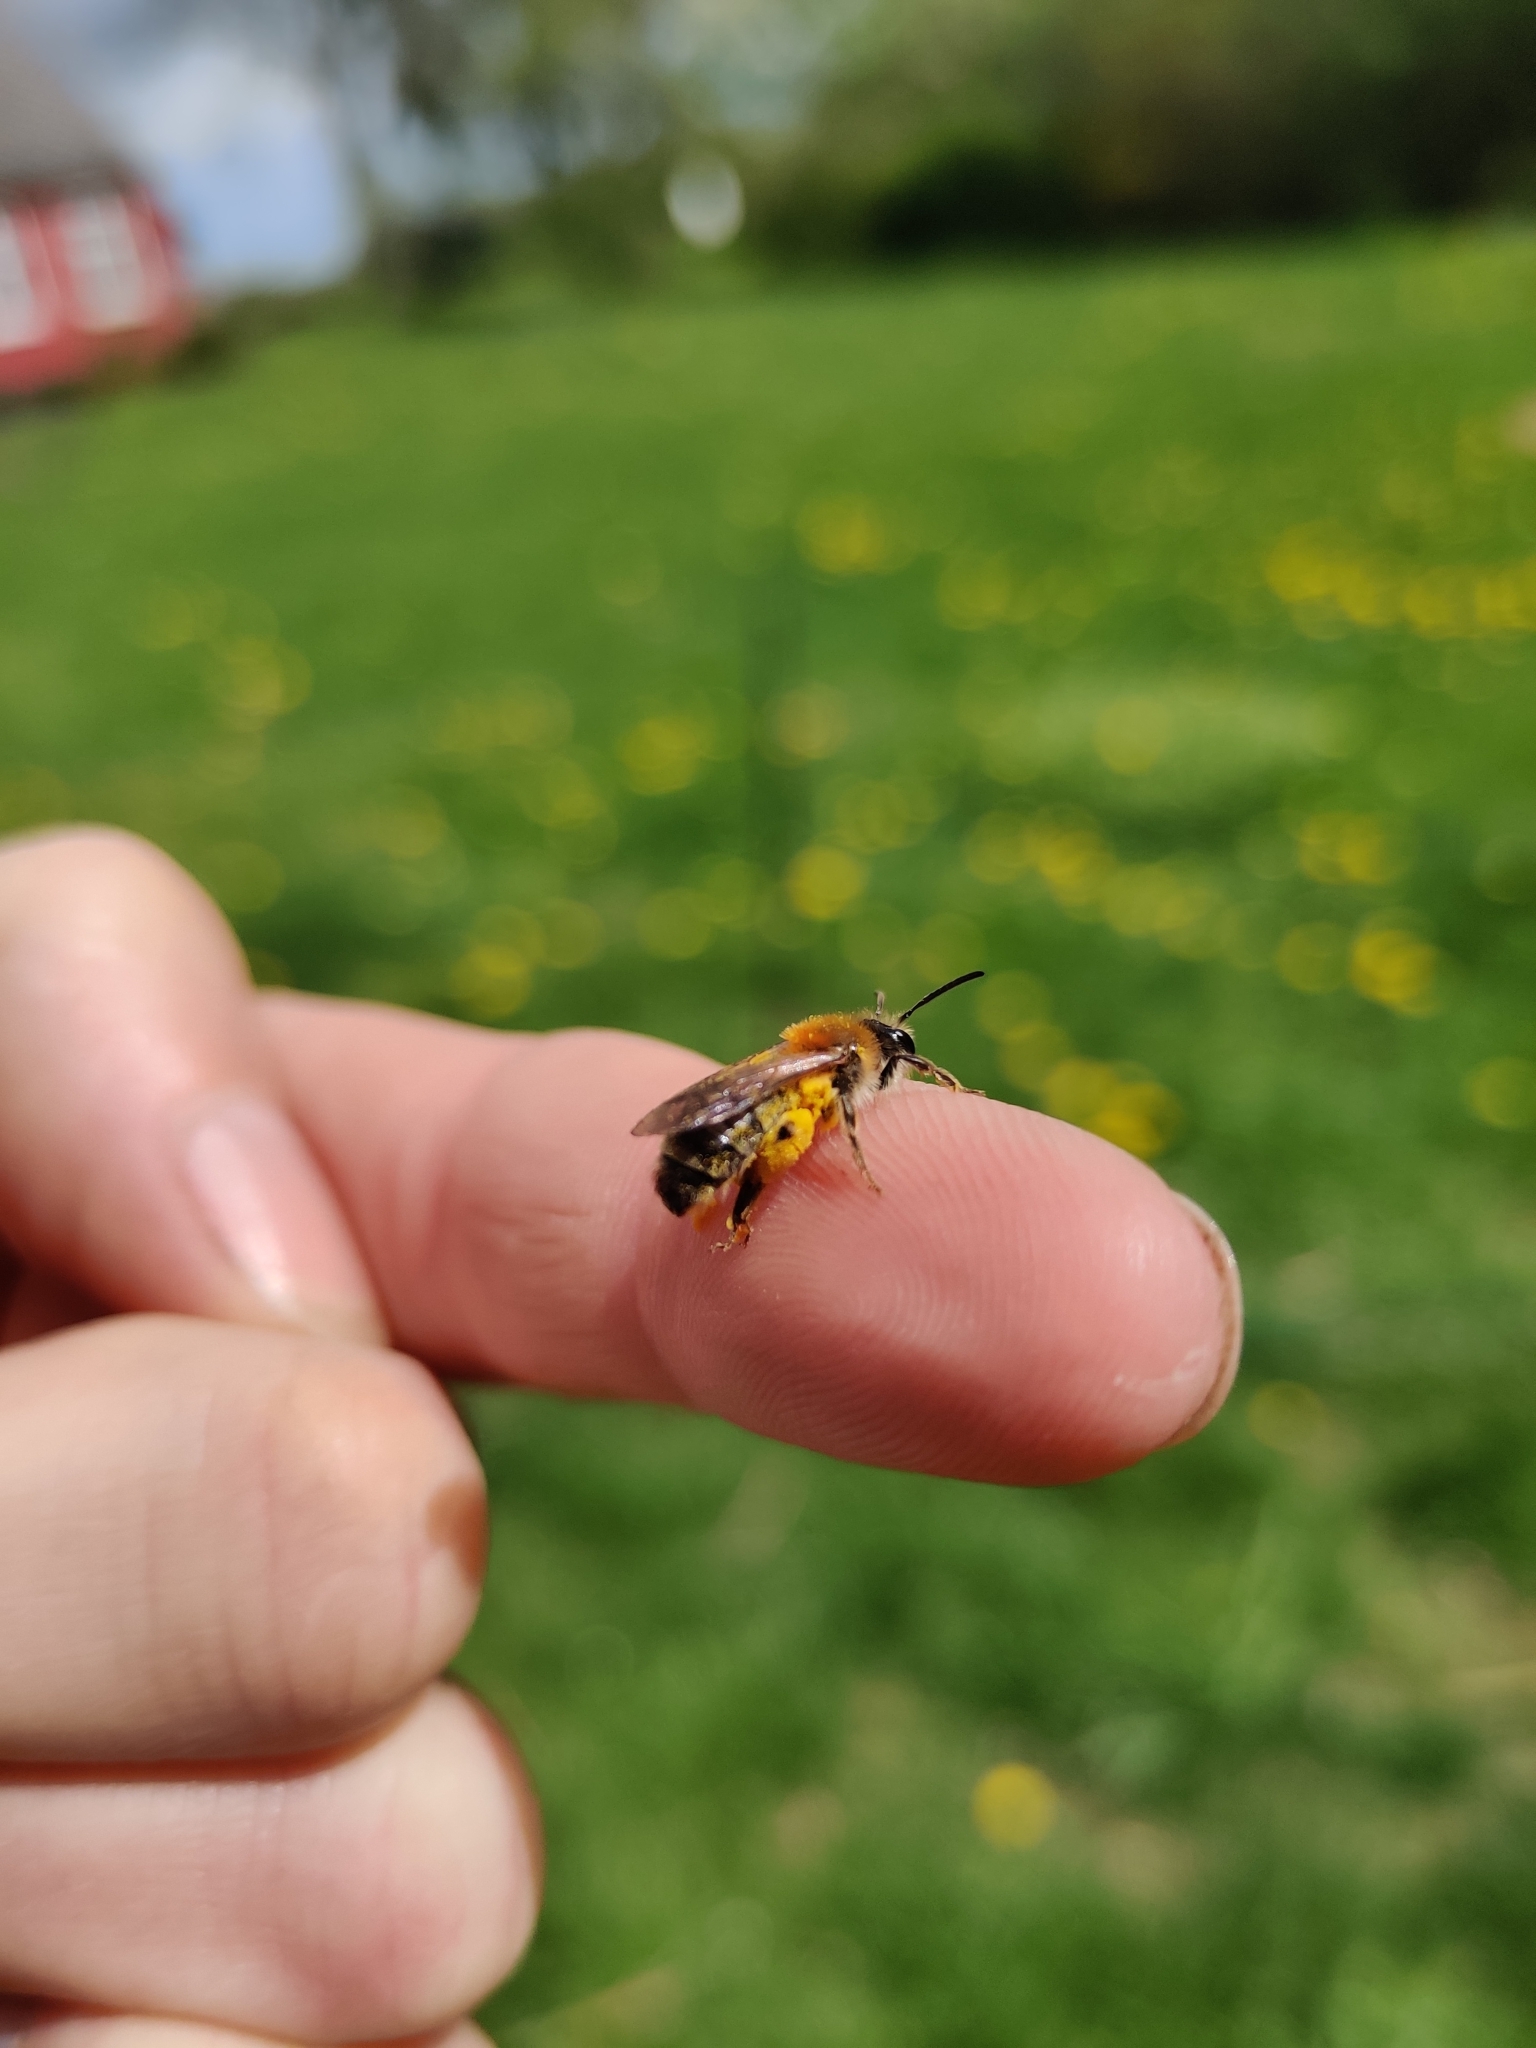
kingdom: Animalia
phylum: Arthropoda
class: Insecta
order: Hymenoptera
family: Andrenidae
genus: Andrena
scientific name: Andrena haemorrhoa
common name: Early mining bee
